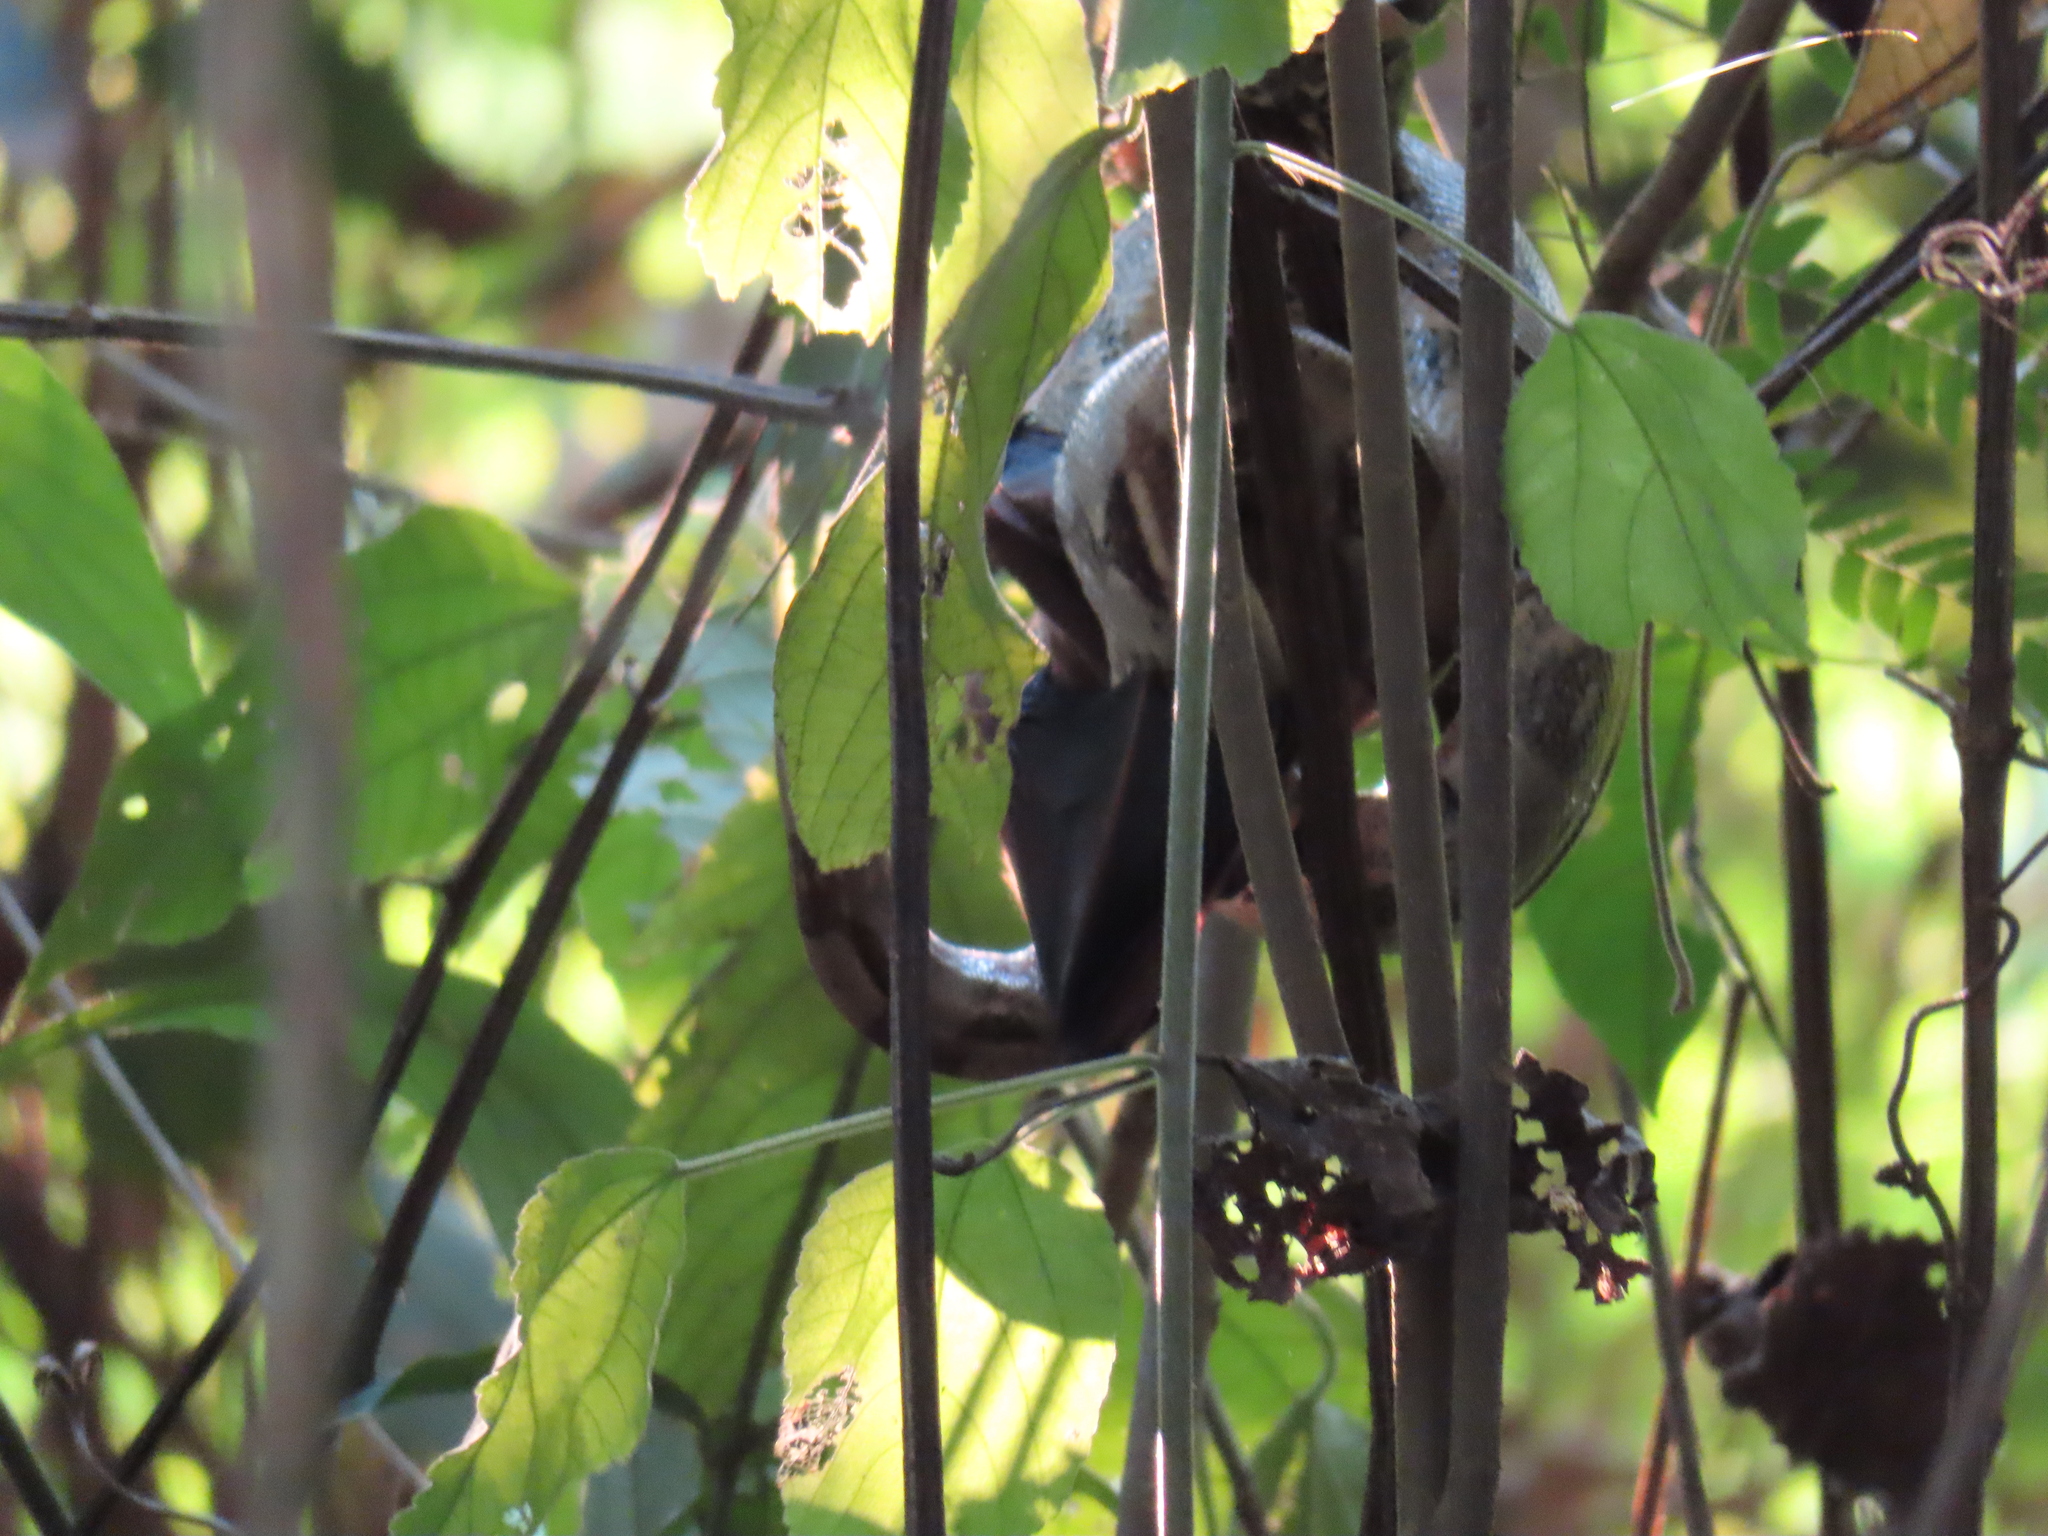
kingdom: Animalia
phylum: Chordata
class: Squamata
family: Boidae
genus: Boa
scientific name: Boa imperator
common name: Central american boa
